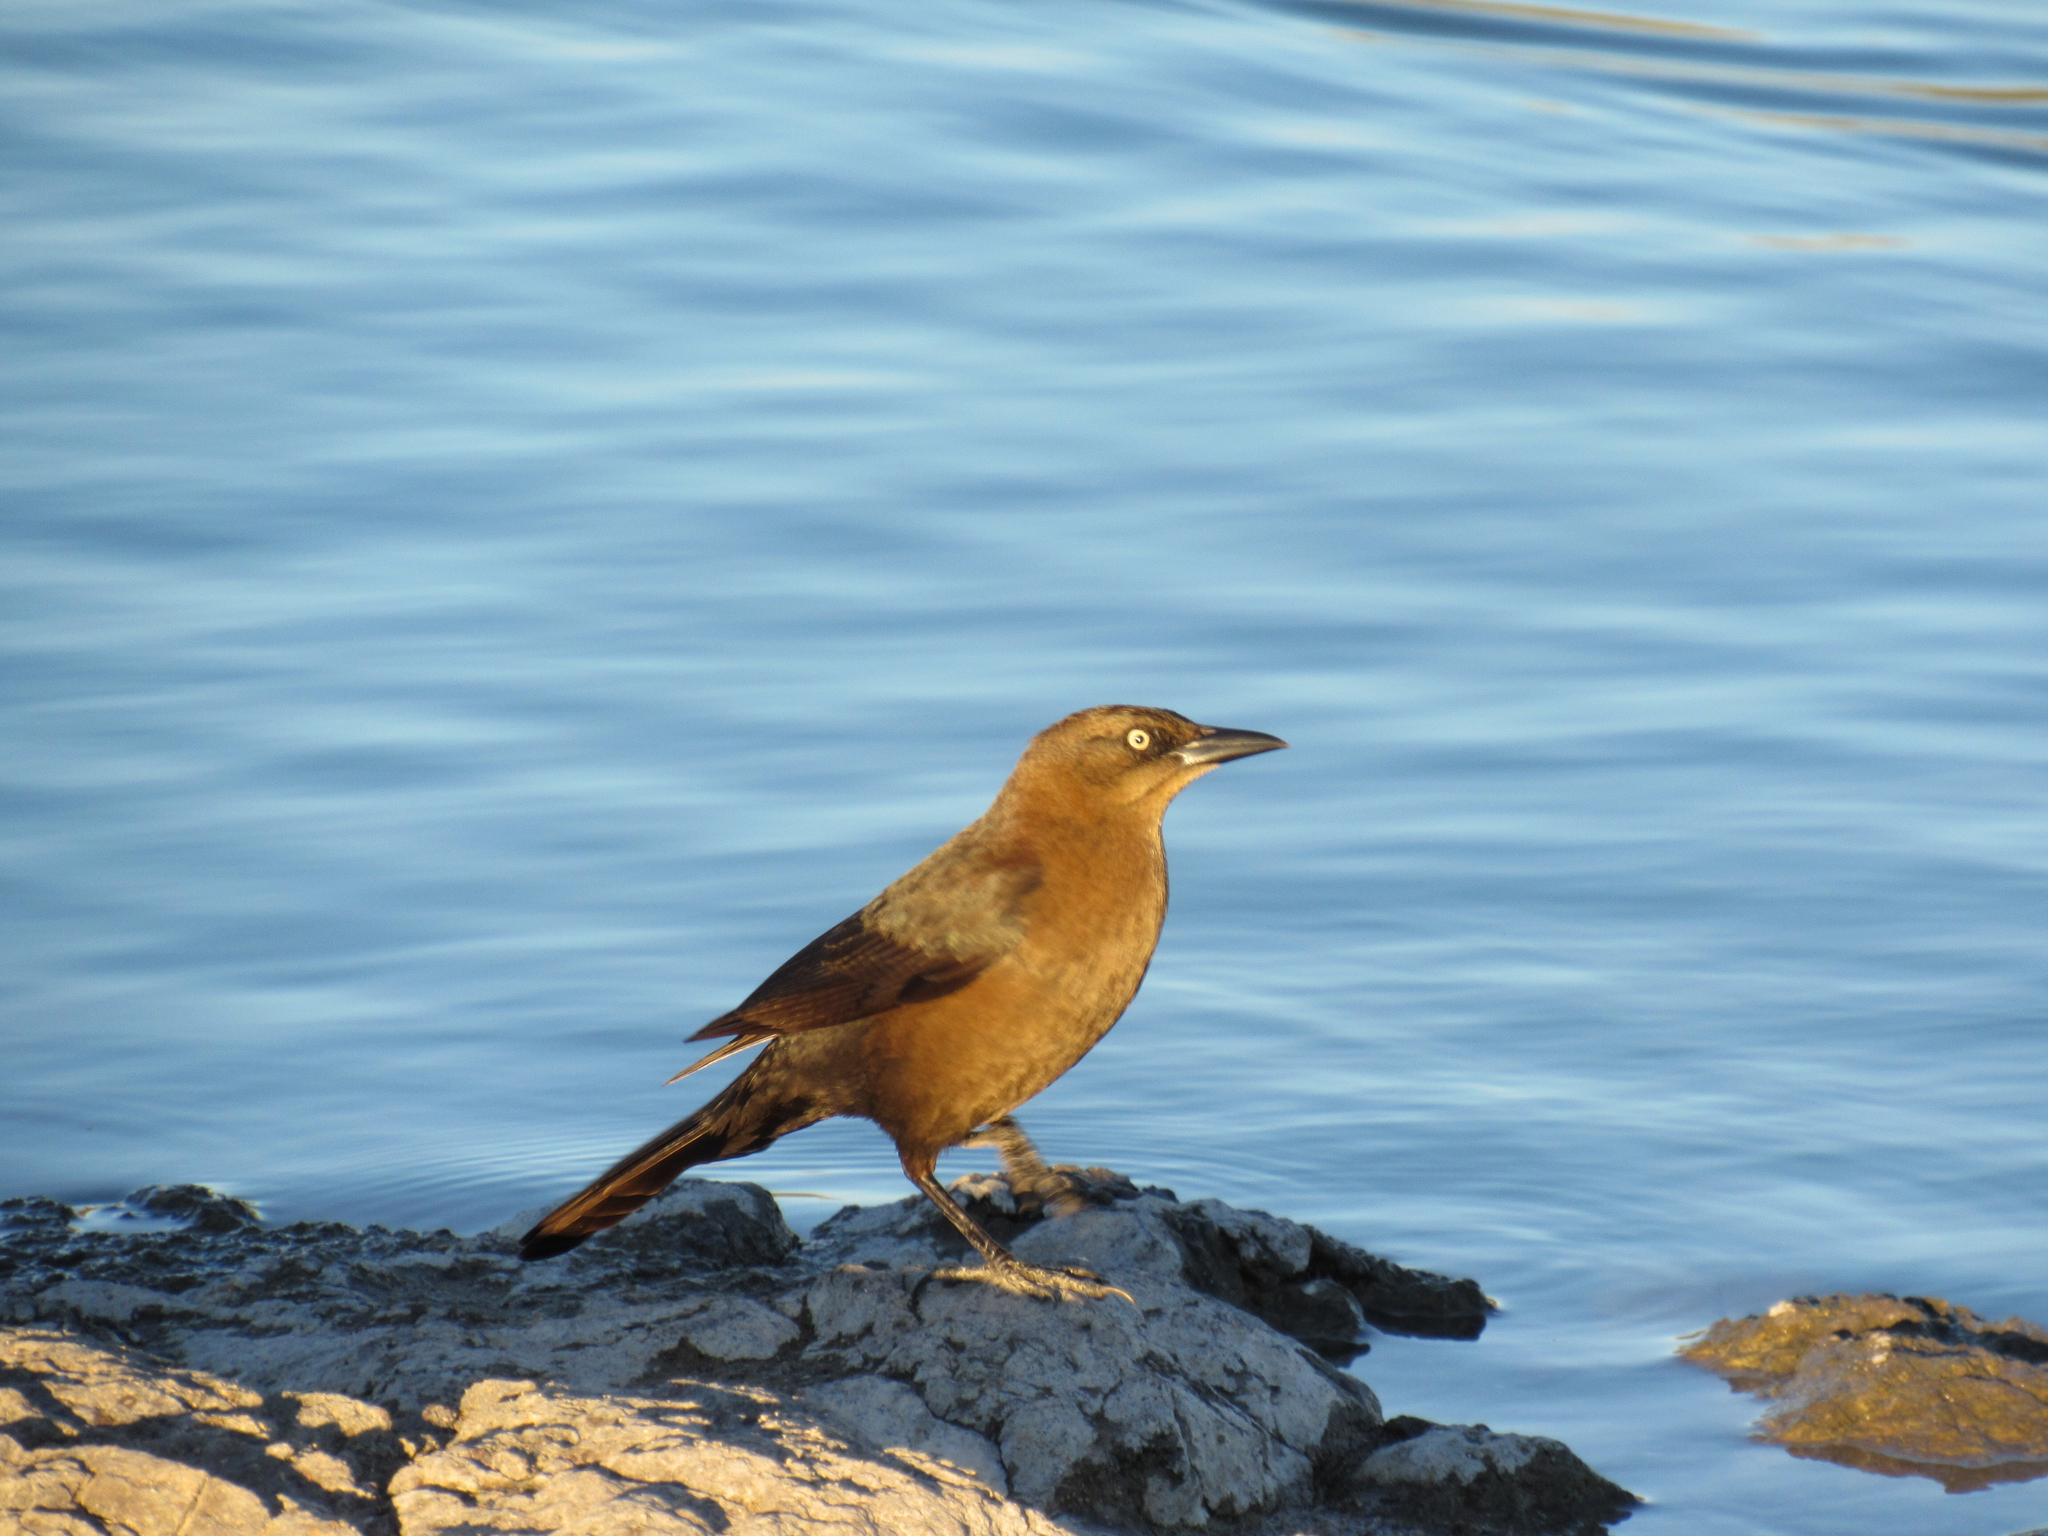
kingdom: Animalia
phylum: Chordata
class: Aves
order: Passeriformes
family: Icteridae
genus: Quiscalus
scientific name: Quiscalus mexicanus
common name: Great-tailed grackle
